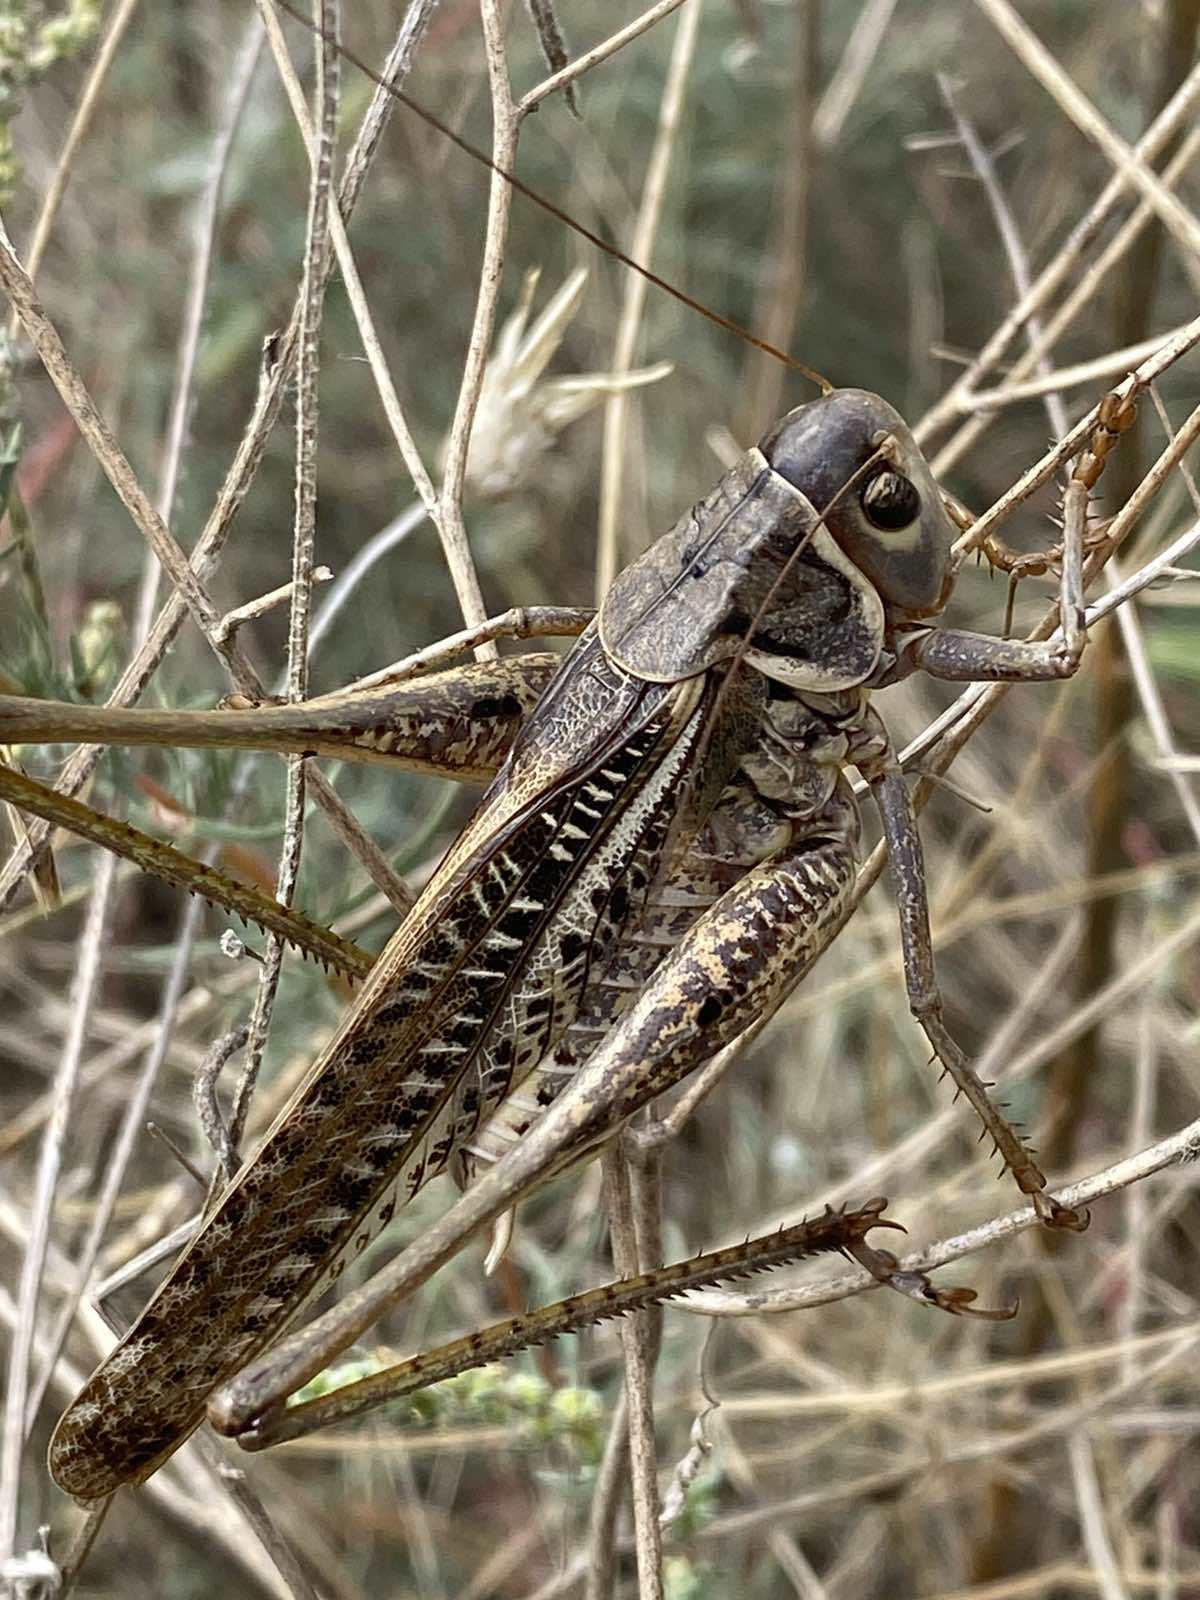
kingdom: Animalia
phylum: Arthropoda
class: Insecta
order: Orthoptera
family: Tettigoniidae
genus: Decticus
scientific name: Decticus albifrons
